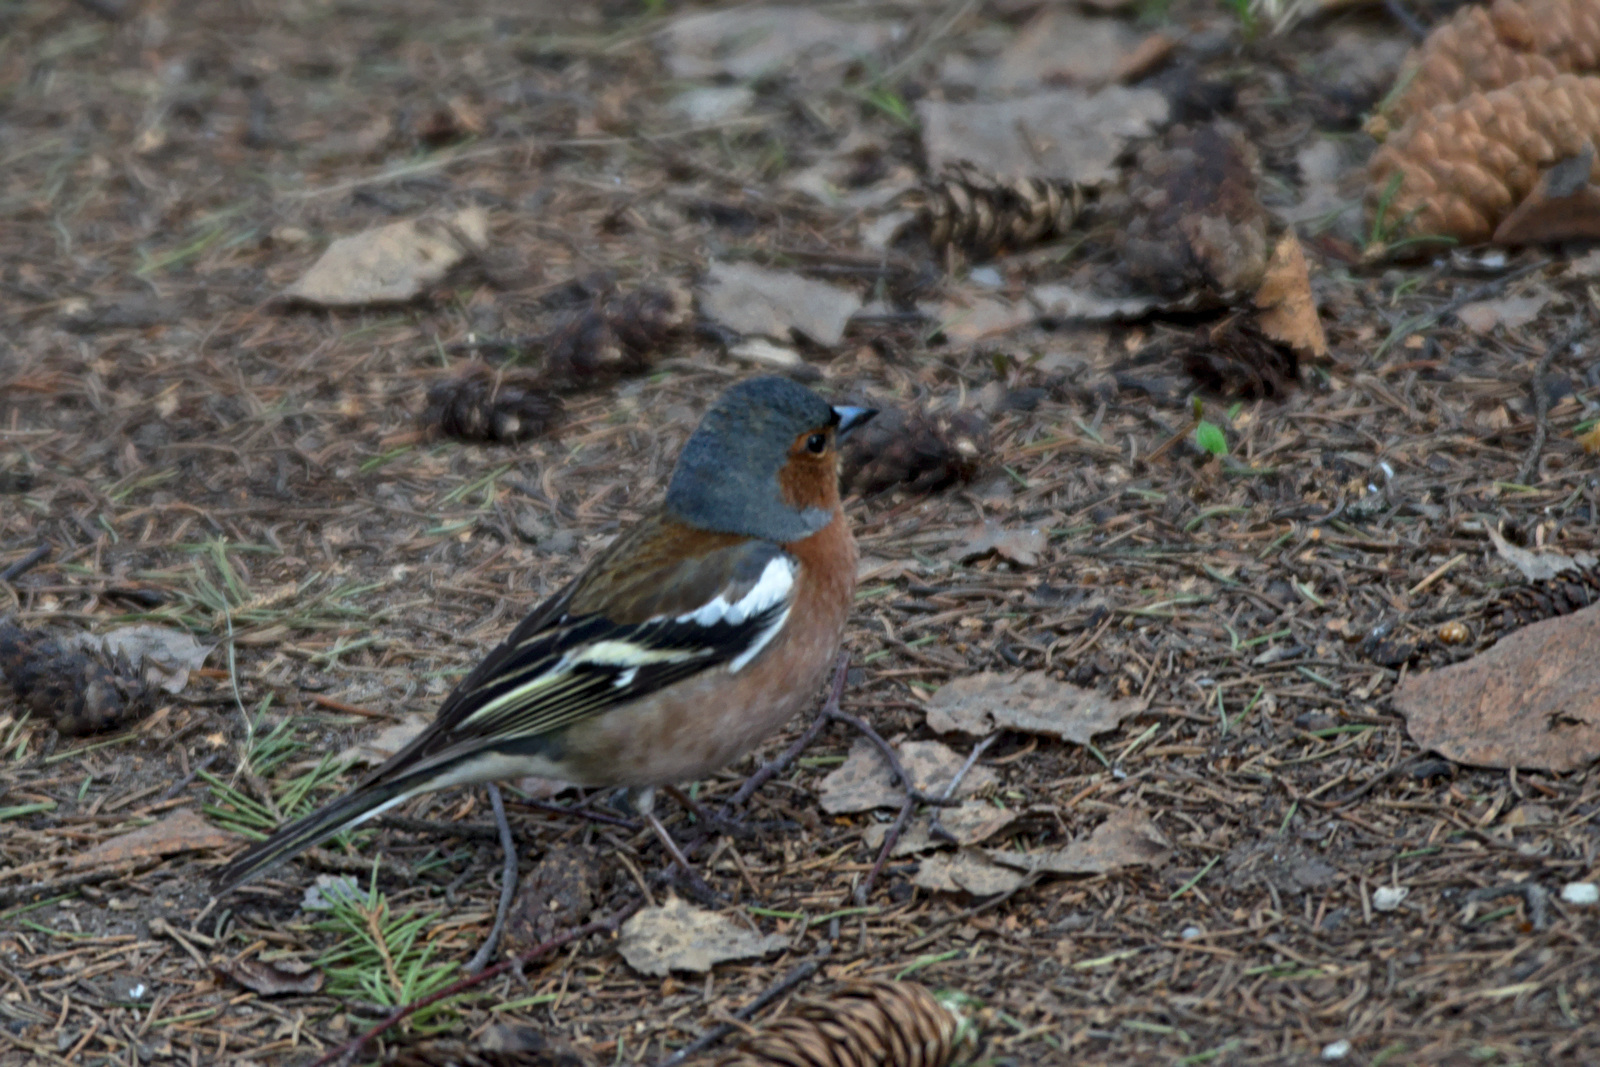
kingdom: Animalia
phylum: Chordata
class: Aves
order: Passeriformes
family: Fringillidae
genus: Fringilla
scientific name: Fringilla coelebs
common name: Common chaffinch
